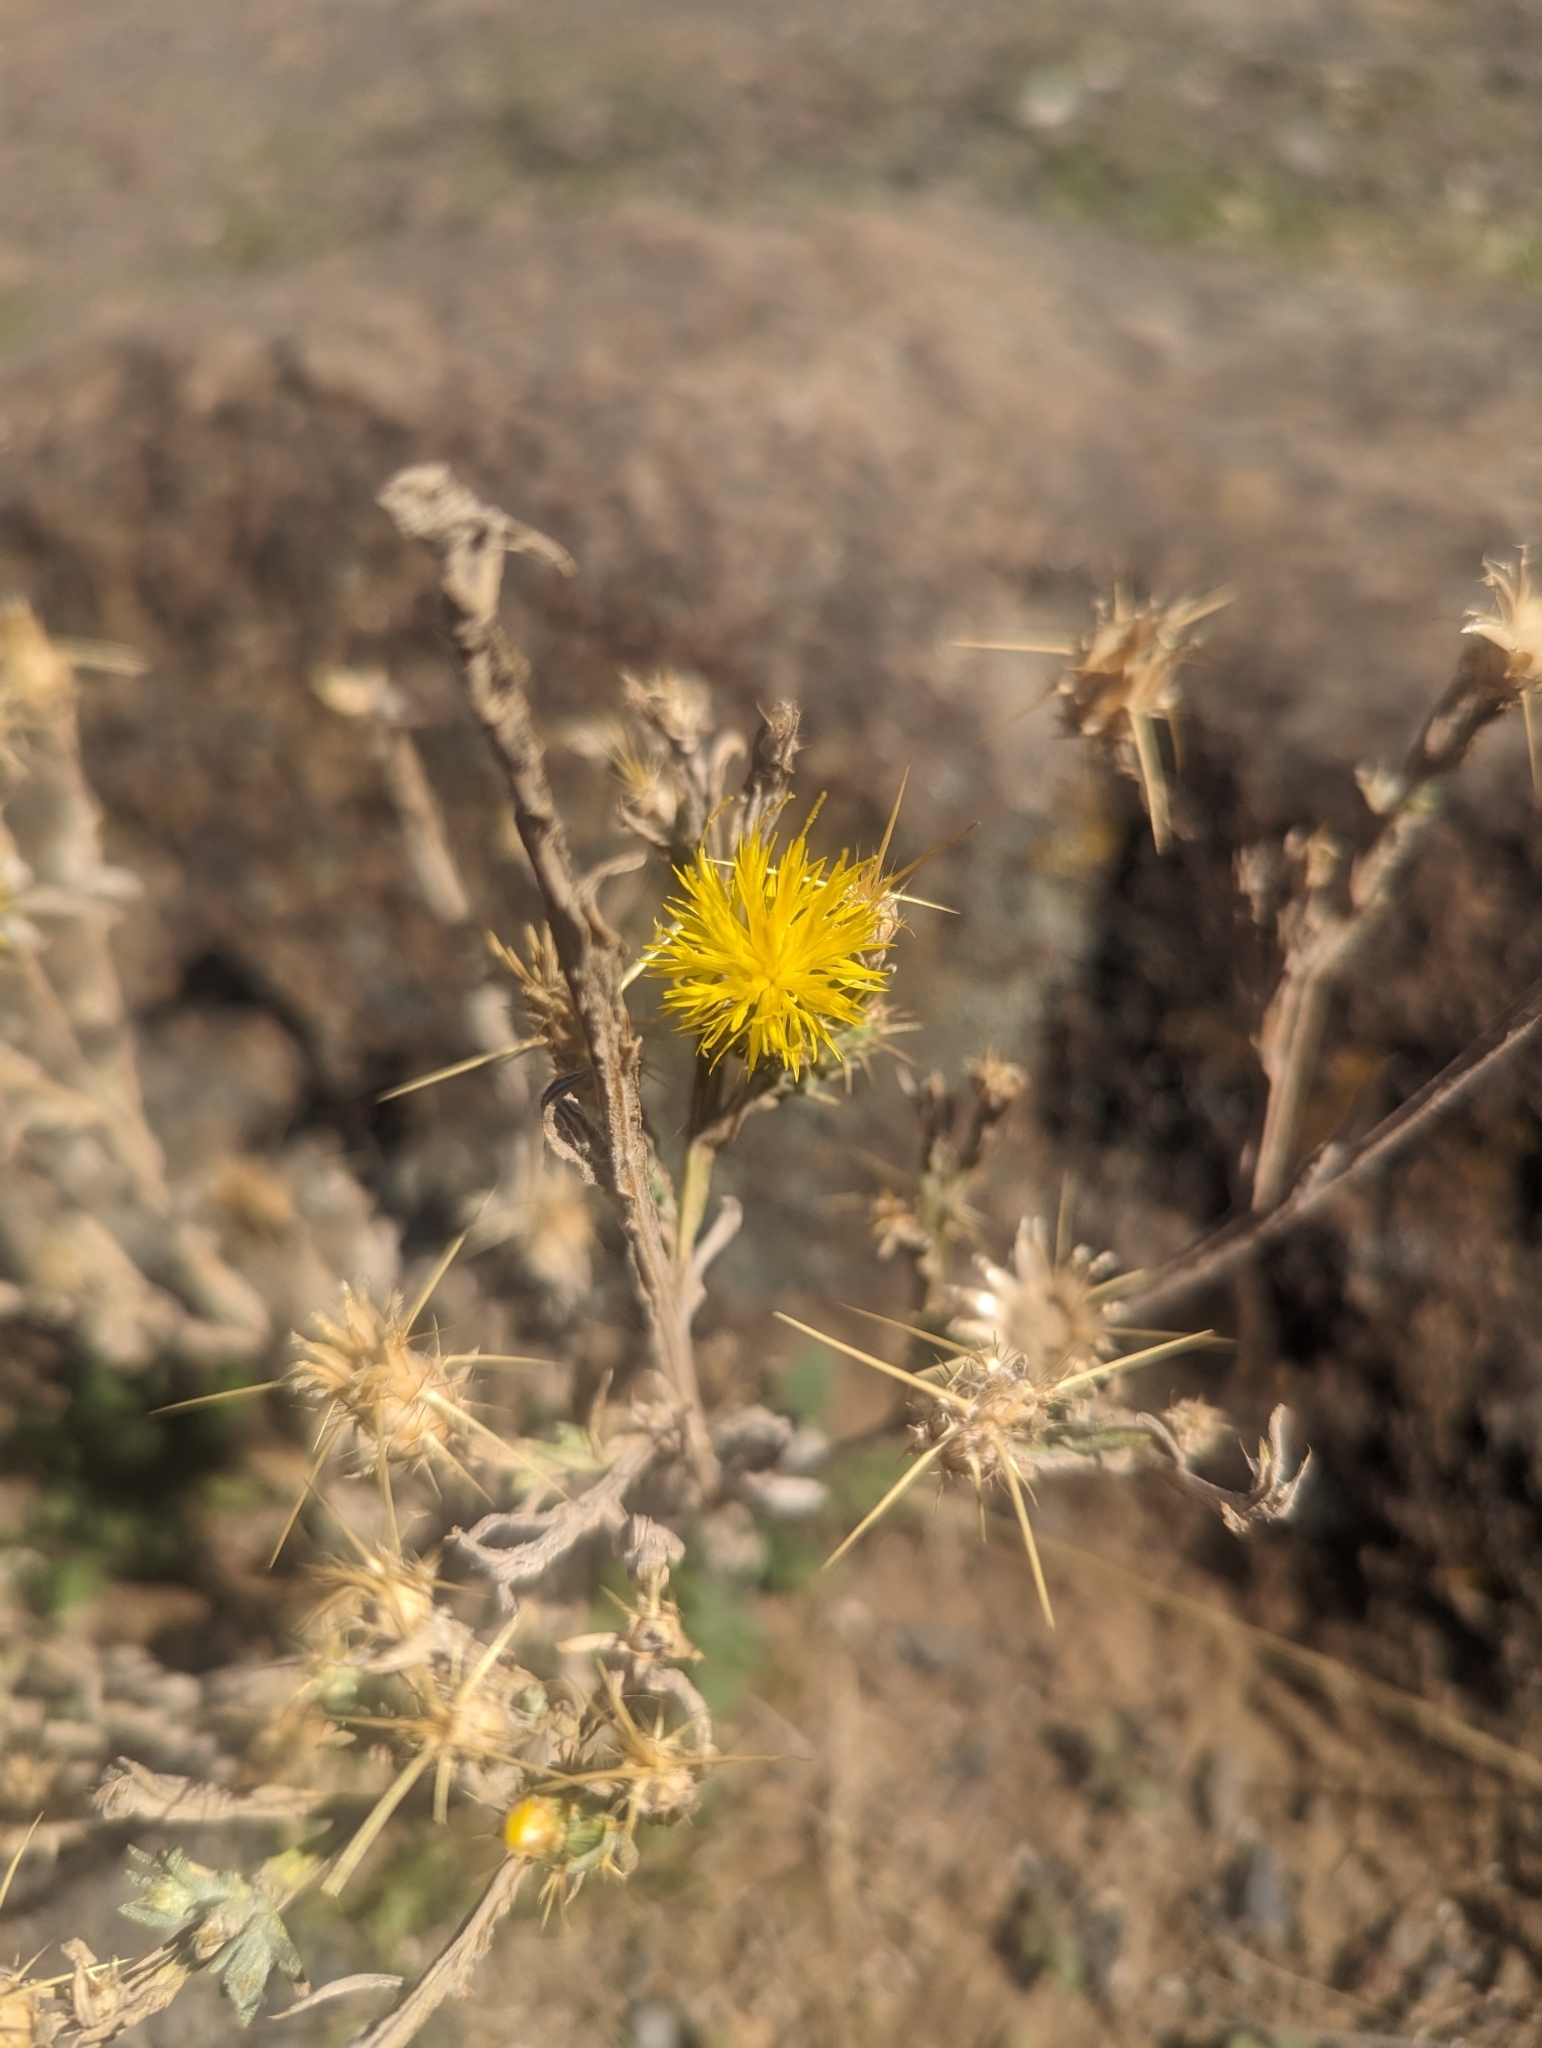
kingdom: Plantae
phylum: Tracheophyta
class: Magnoliopsida
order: Asterales
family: Asteraceae
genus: Centaurea
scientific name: Centaurea solstitialis
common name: Yellow star-thistle
